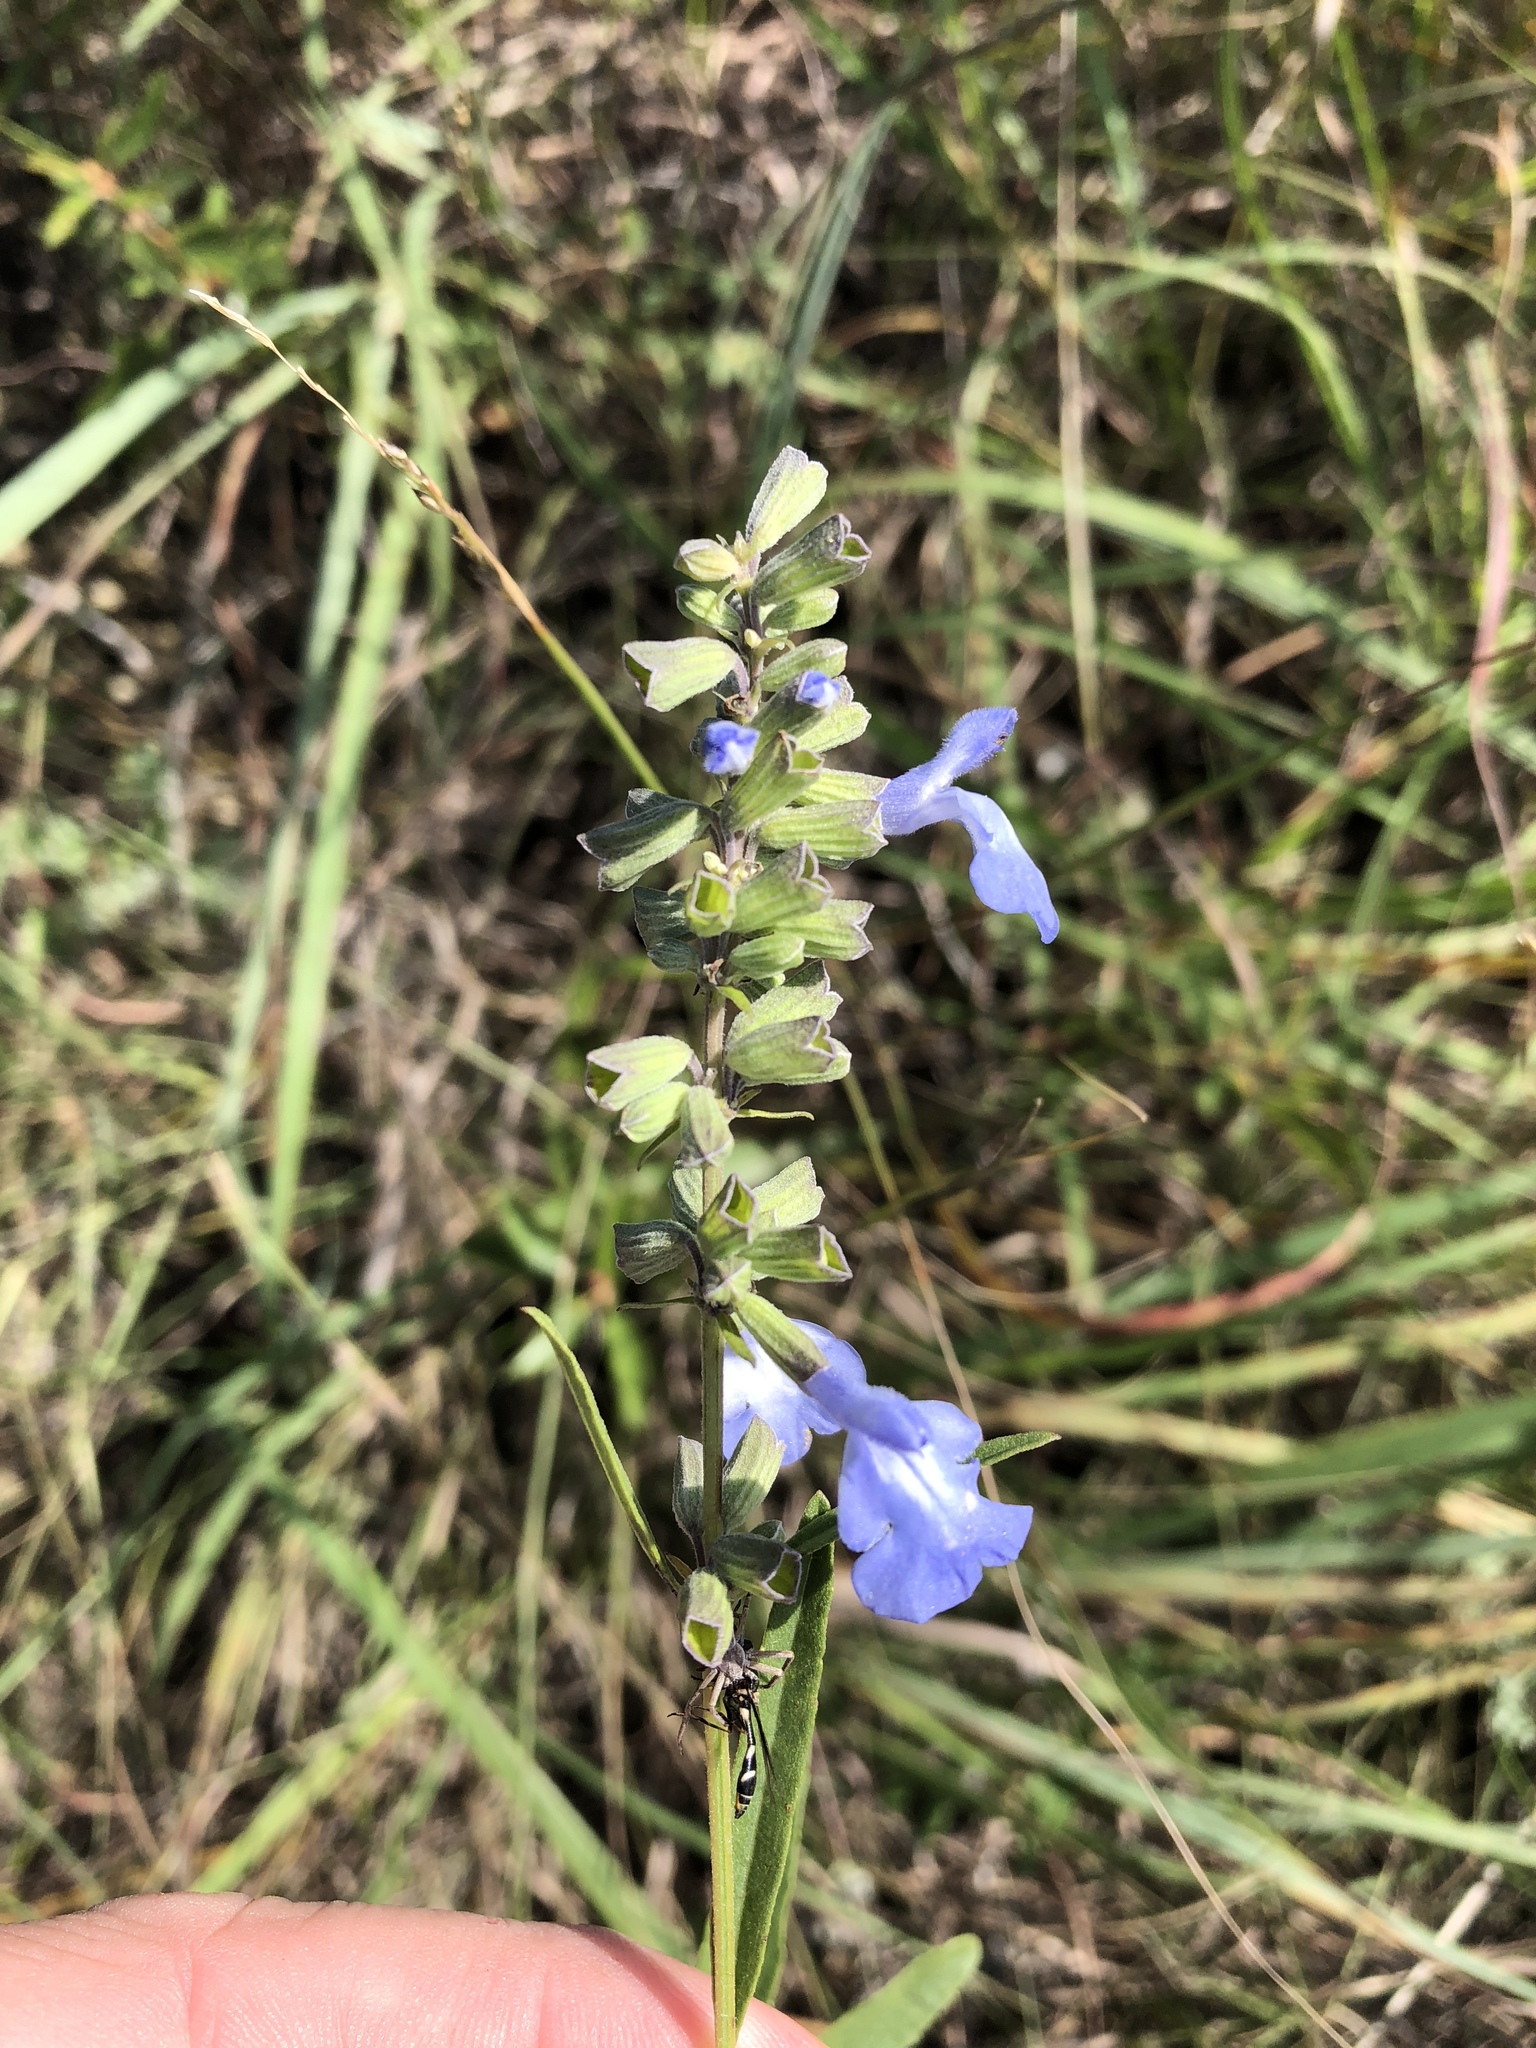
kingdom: Plantae
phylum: Tracheophyta
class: Magnoliopsida
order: Lamiales
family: Lamiaceae
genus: Salvia
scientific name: Salvia azurea
